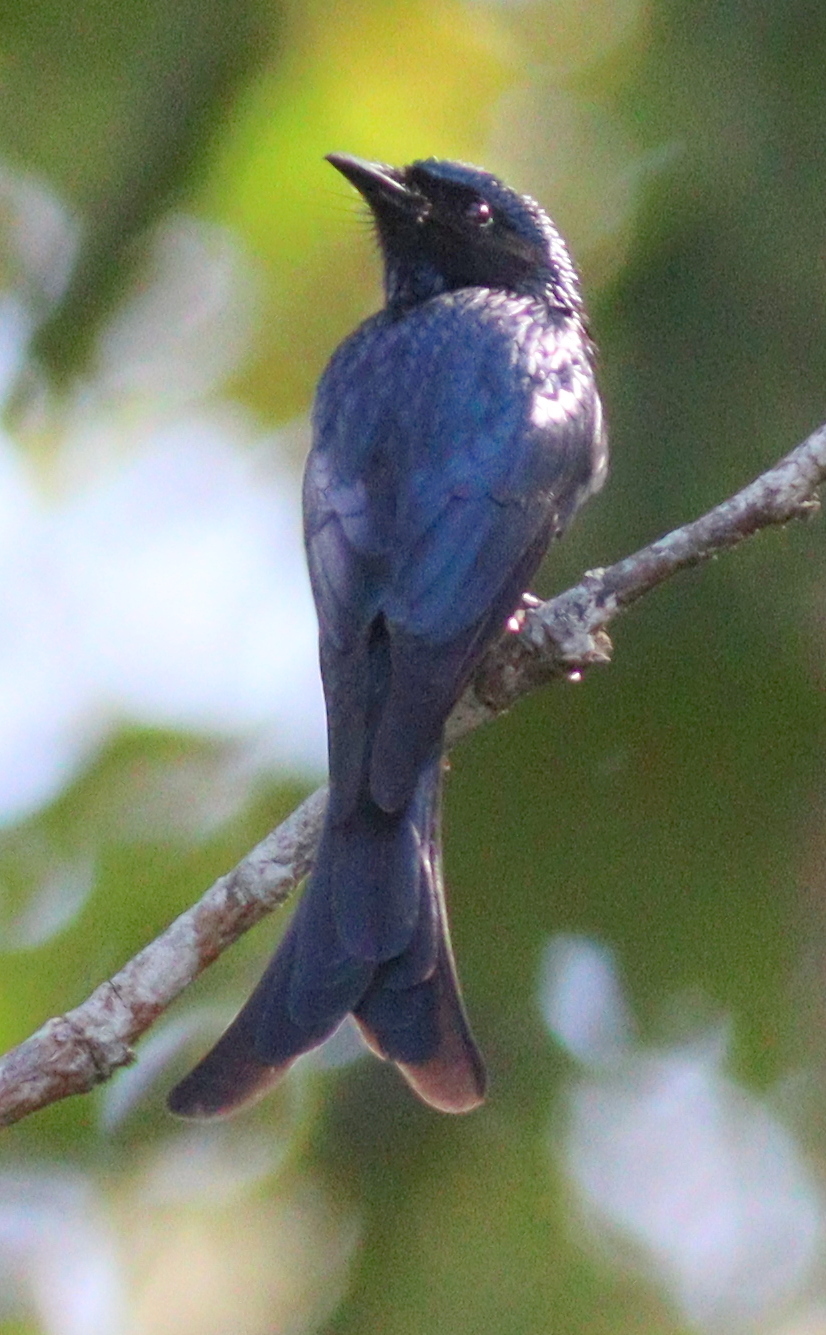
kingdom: Animalia
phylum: Chordata
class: Aves
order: Passeriformes
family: Dicruridae
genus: Dicrurus
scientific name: Dicrurus aeneus
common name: Bronzed drongo
